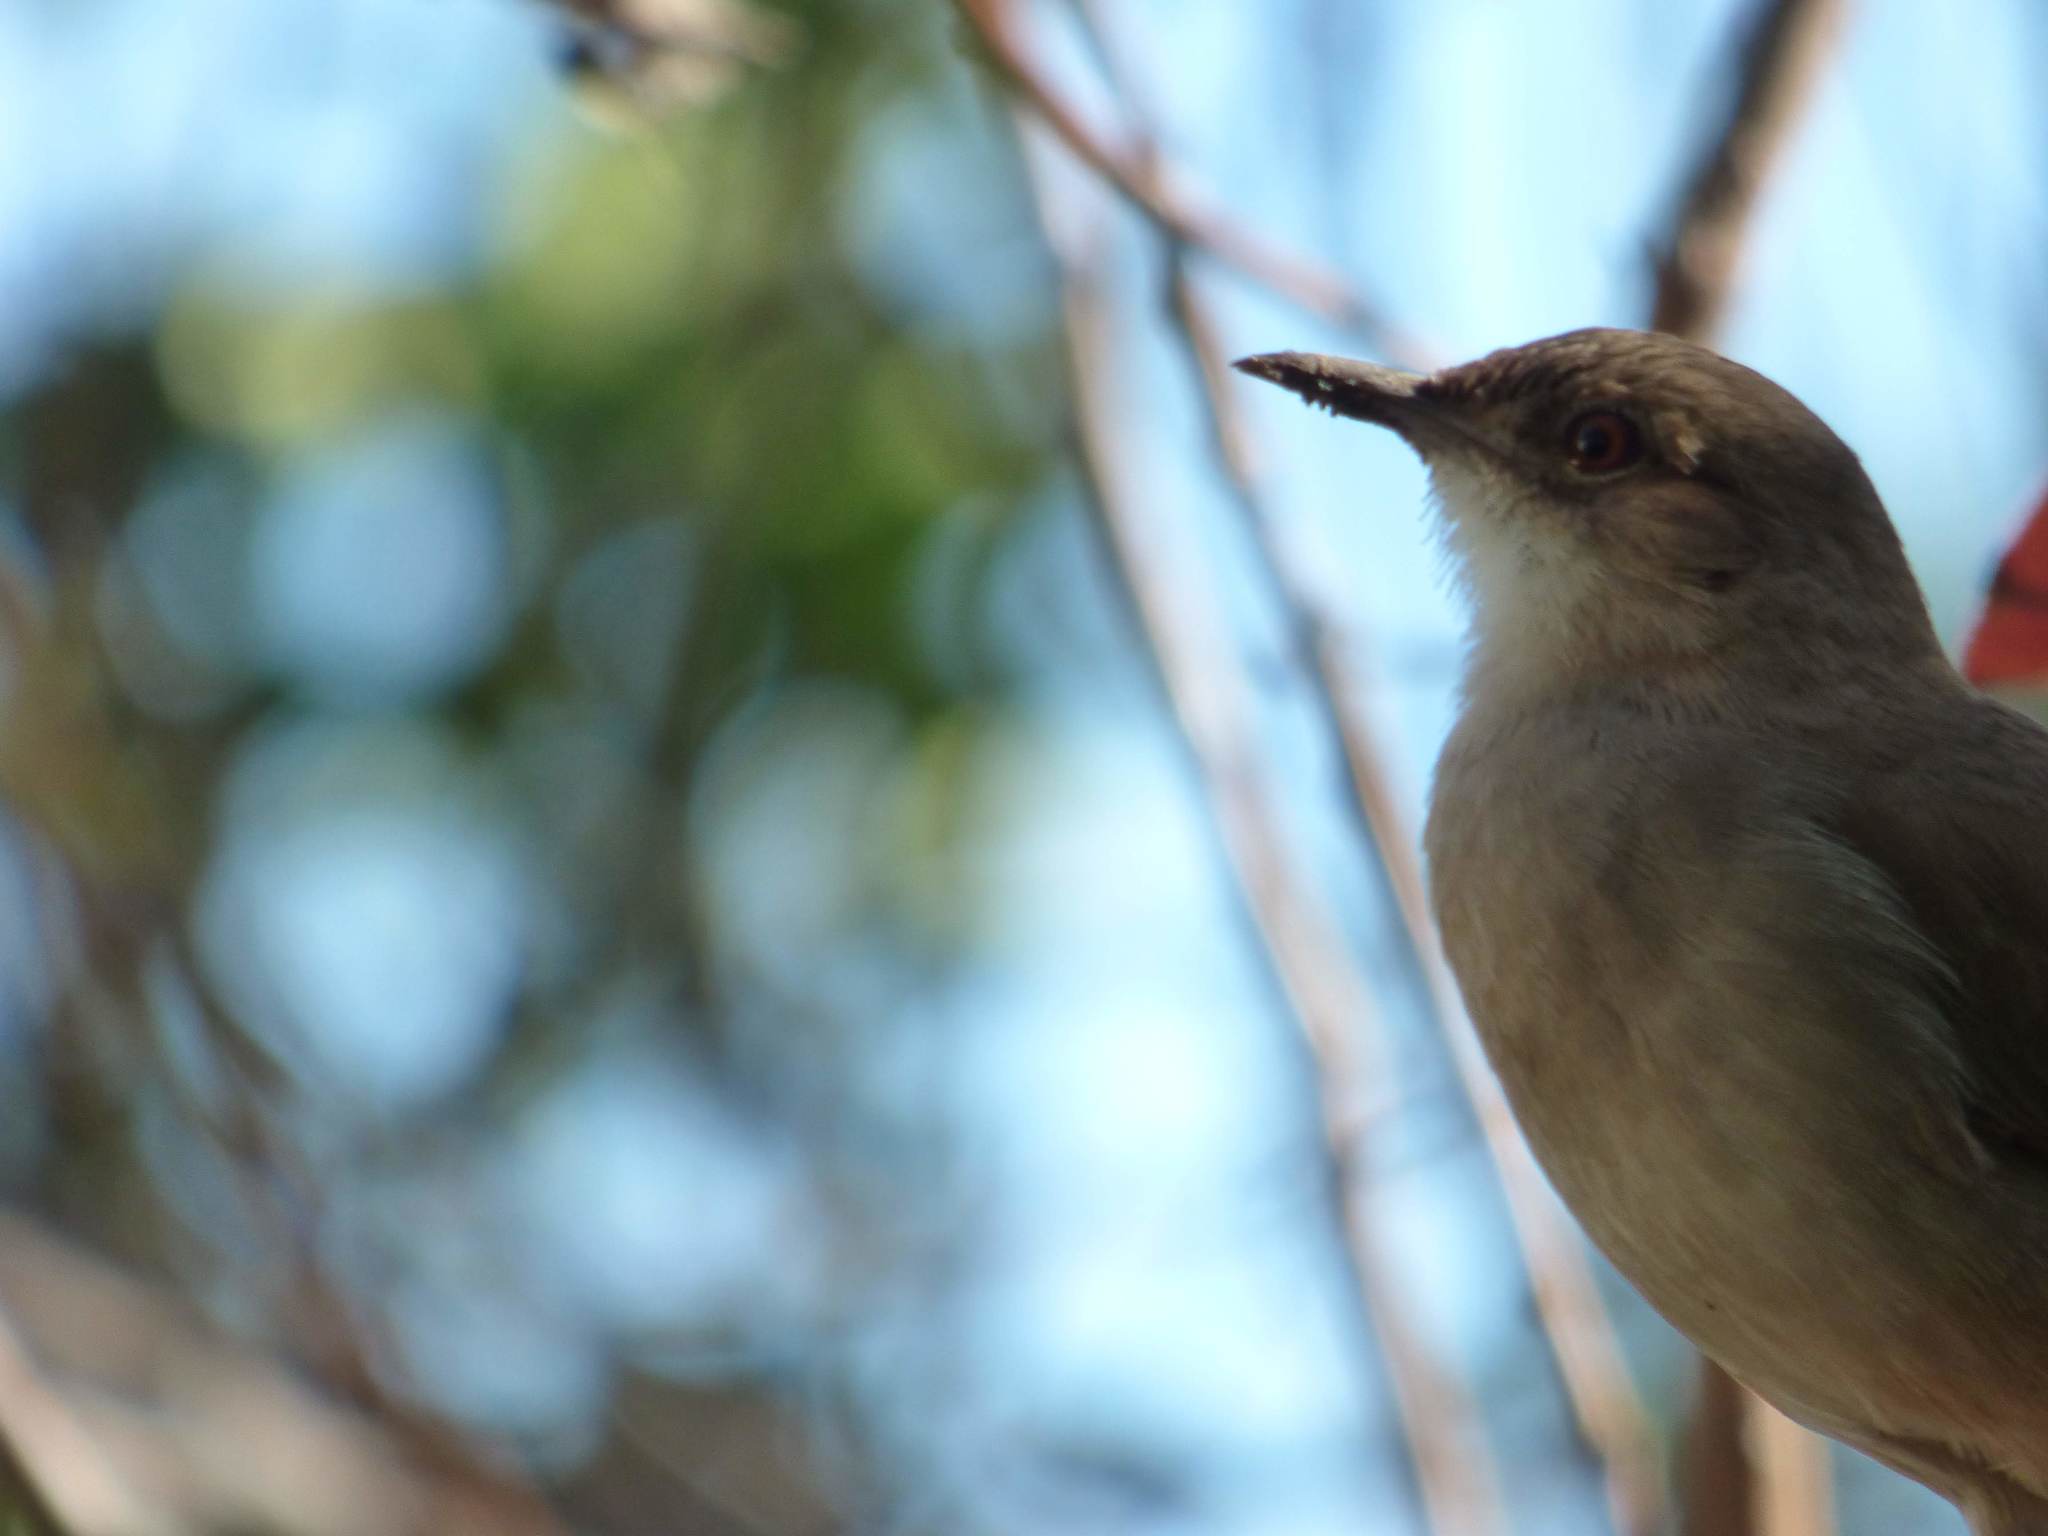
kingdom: Animalia
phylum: Chordata
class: Aves
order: Passeriformes
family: Furnariidae
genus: Furnarius
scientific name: Furnarius rufus
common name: Rufous hornero
